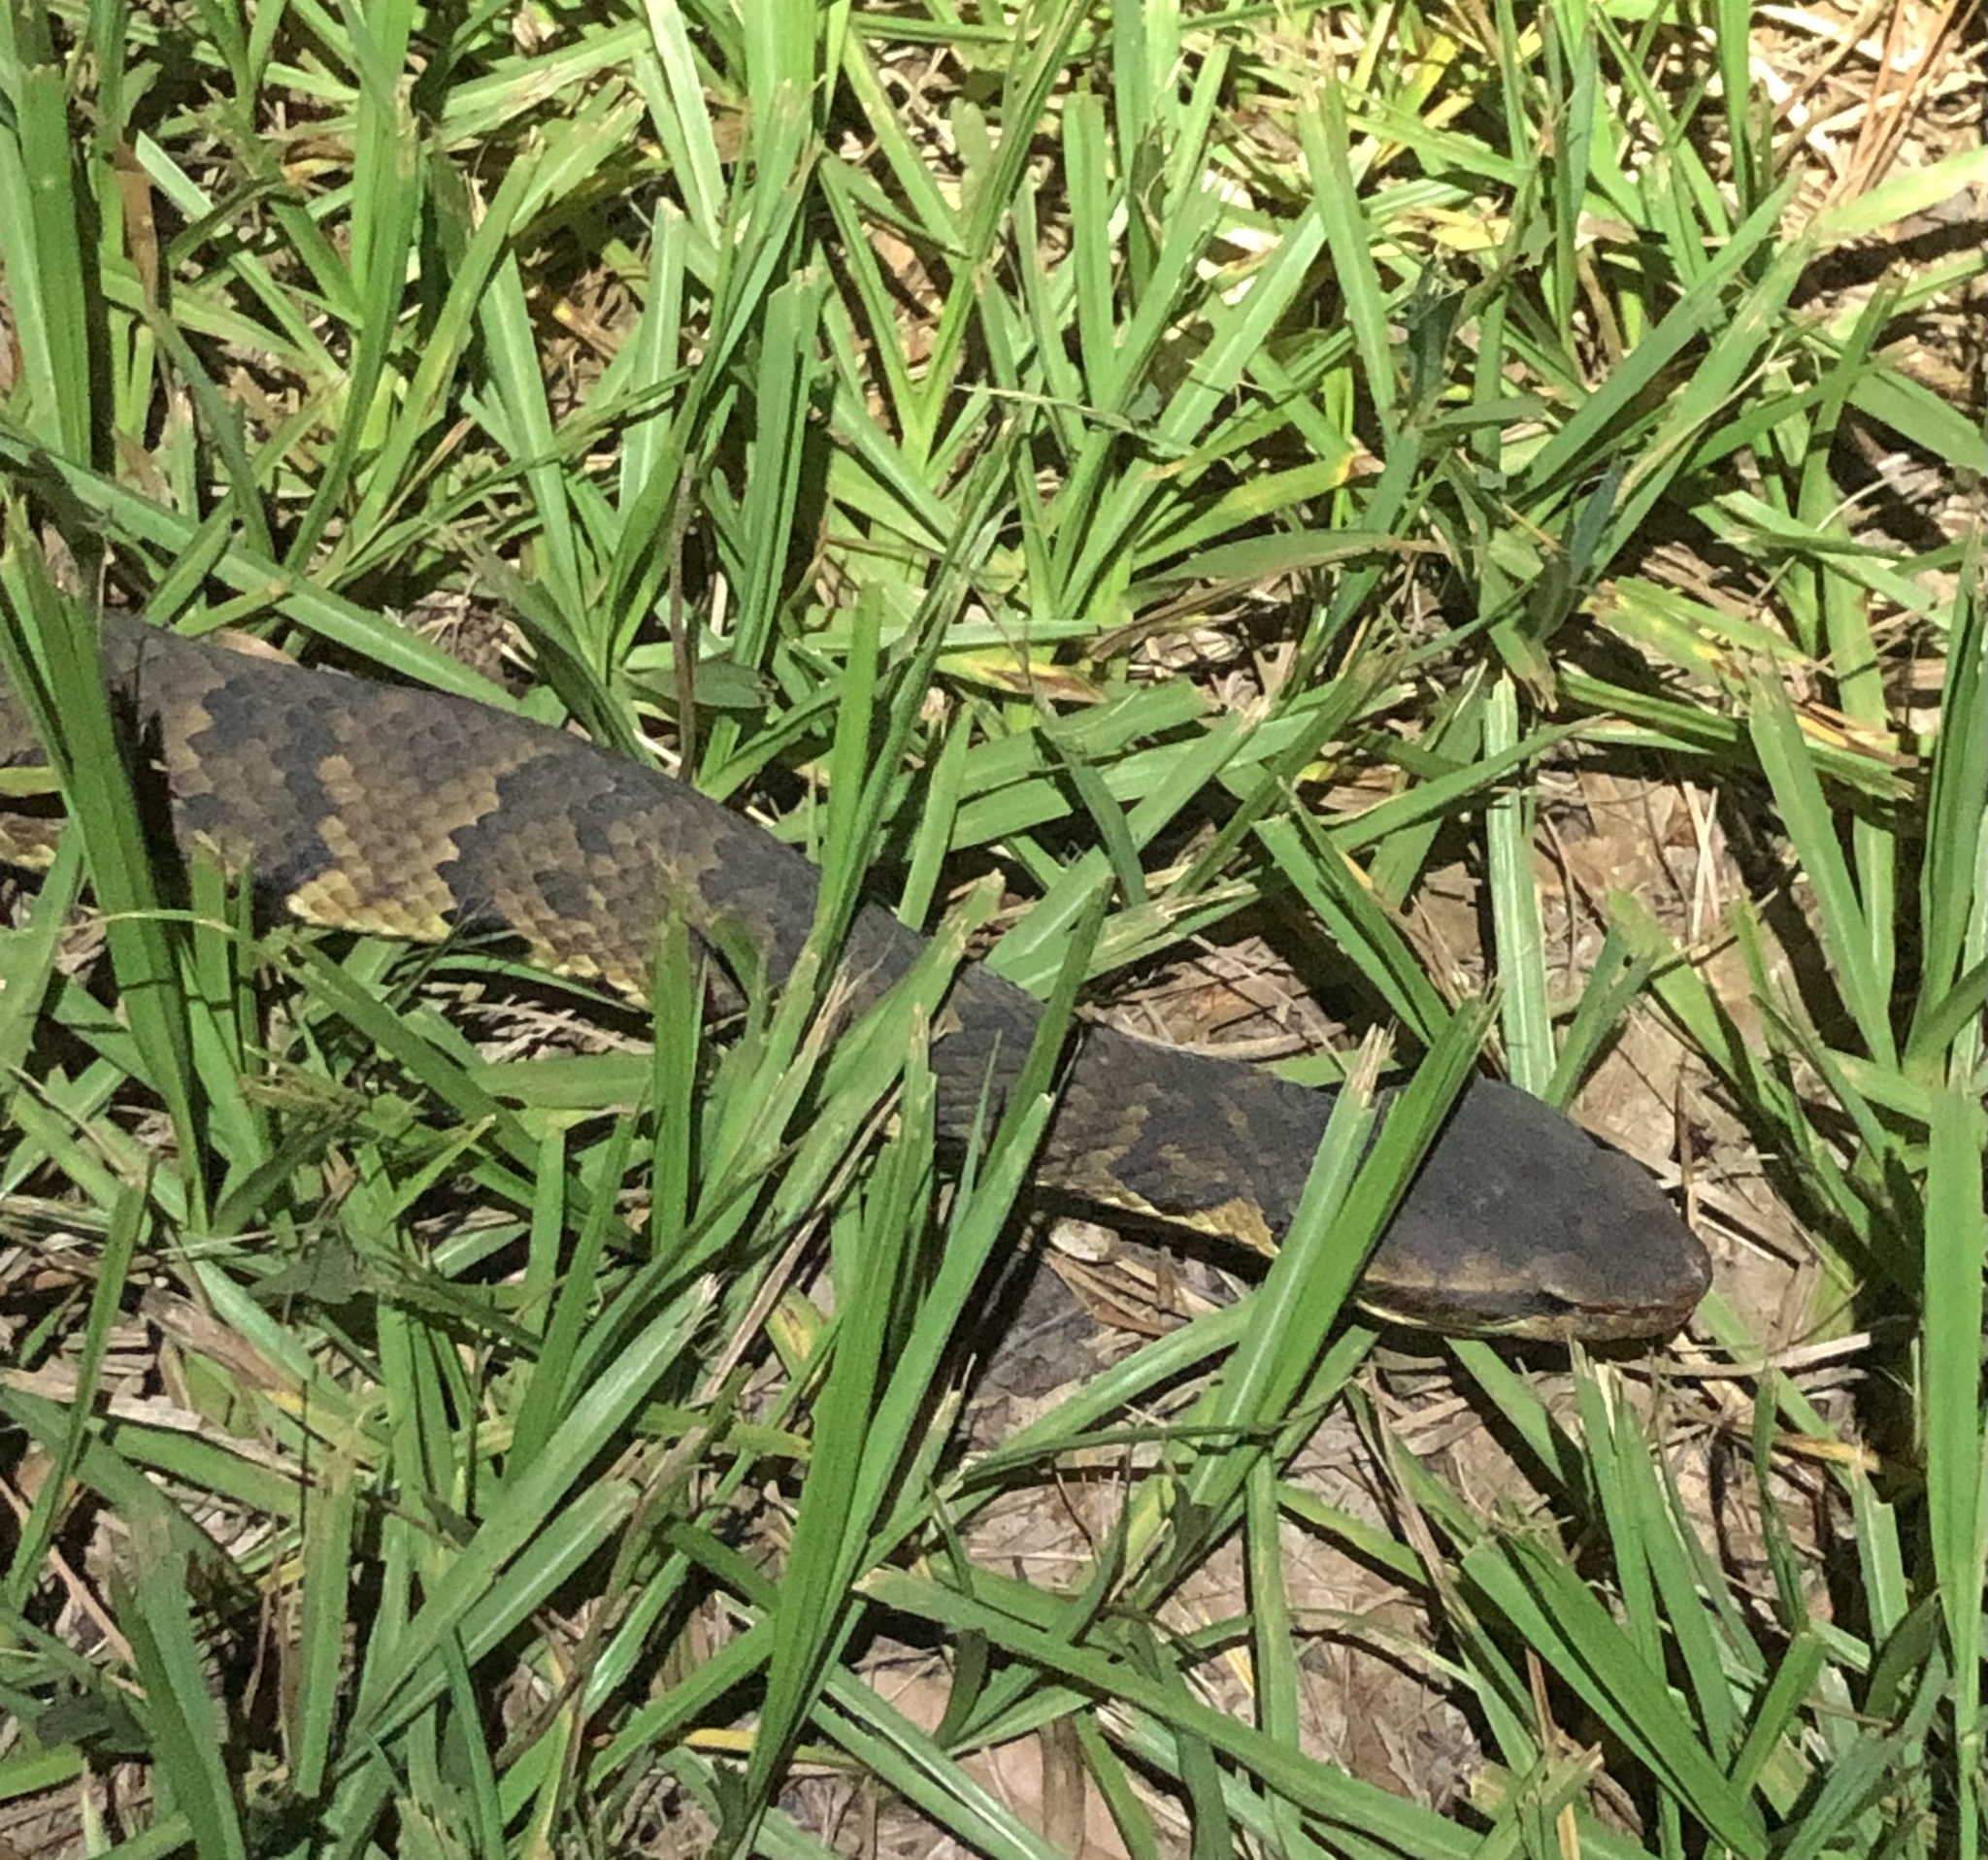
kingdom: Animalia
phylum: Chordata
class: Squamata
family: Viperidae
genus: Agkistrodon
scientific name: Agkistrodon piscivorus
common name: Cottonmouth
